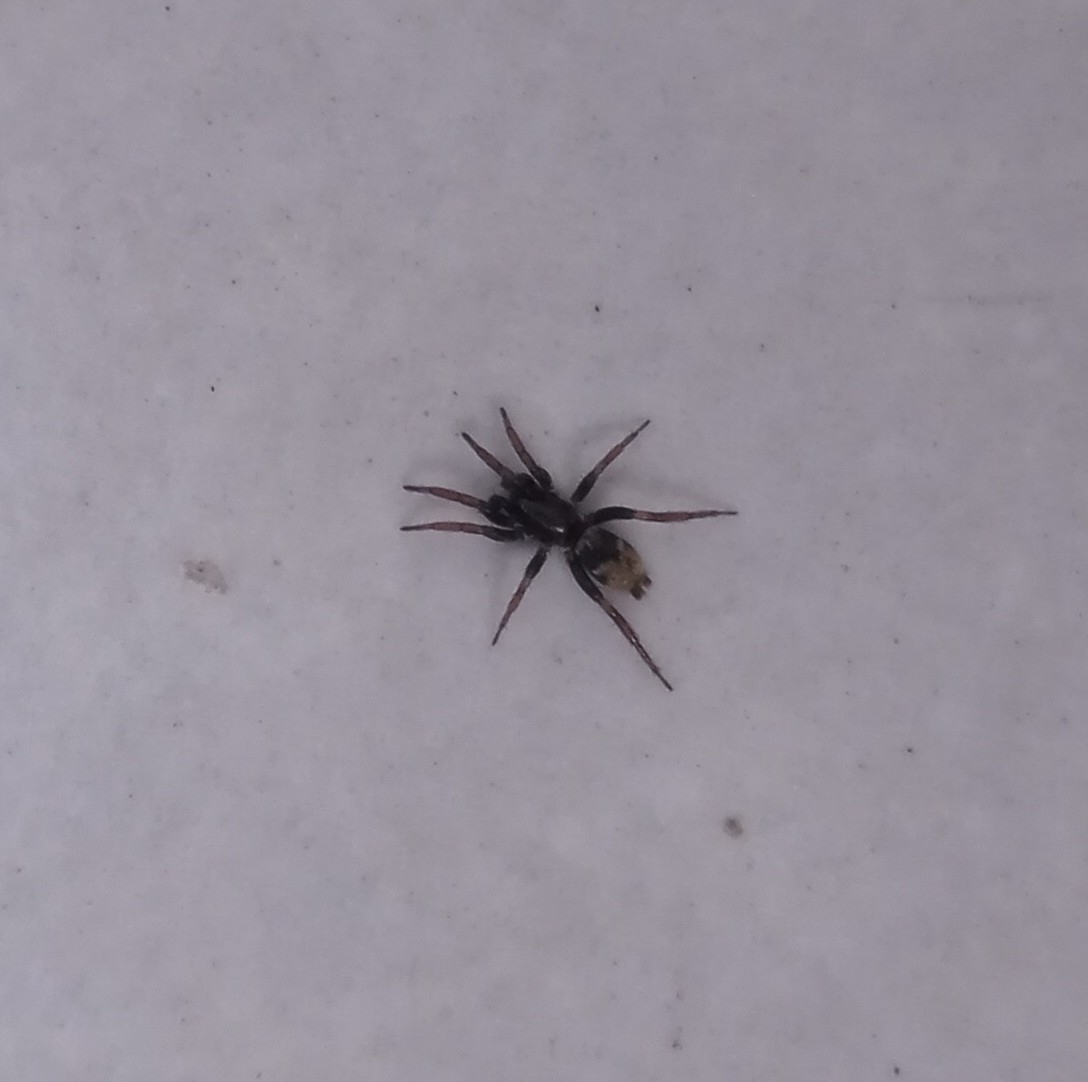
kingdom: Animalia
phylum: Arthropoda
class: Arachnida
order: Araneae
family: Gnaphosidae
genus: Latonigena
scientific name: Latonigena auricomis
